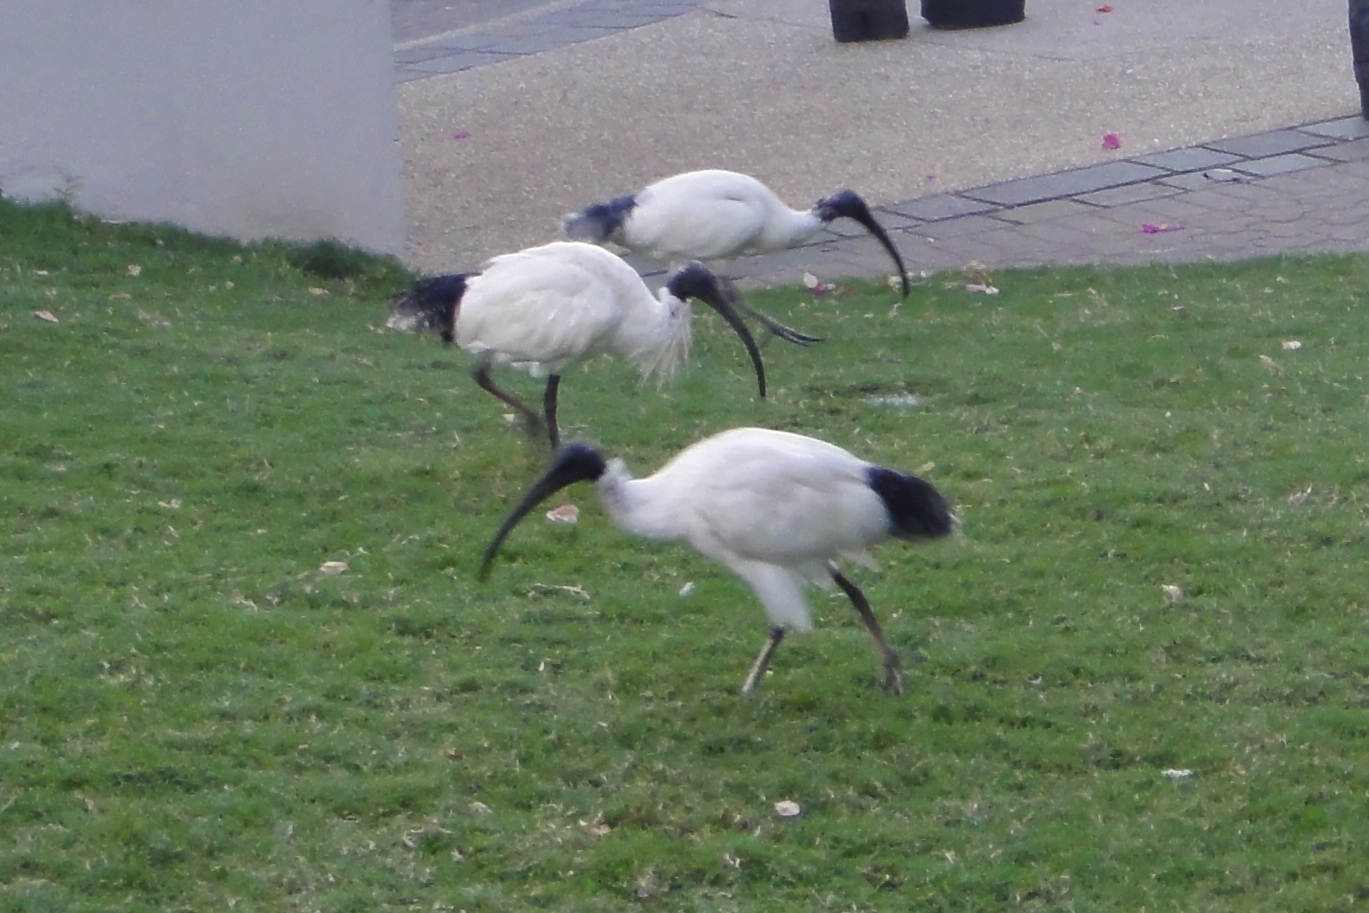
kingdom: Animalia
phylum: Chordata
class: Aves
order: Pelecaniformes
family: Threskiornithidae
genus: Threskiornis
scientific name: Threskiornis molucca
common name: Australian white ibis
